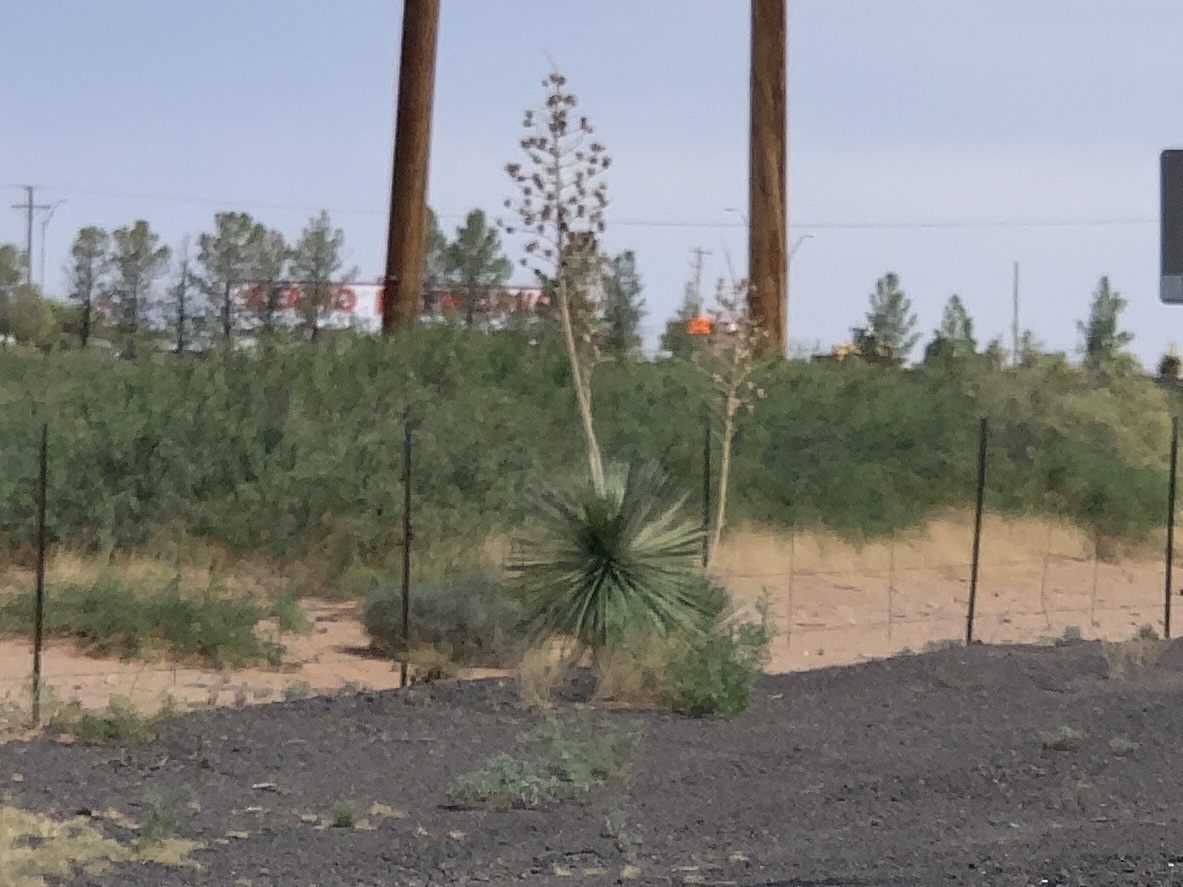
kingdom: Plantae
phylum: Tracheophyta
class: Liliopsida
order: Asparagales
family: Asparagaceae
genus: Yucca
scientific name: Yucca elata
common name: Palmella
